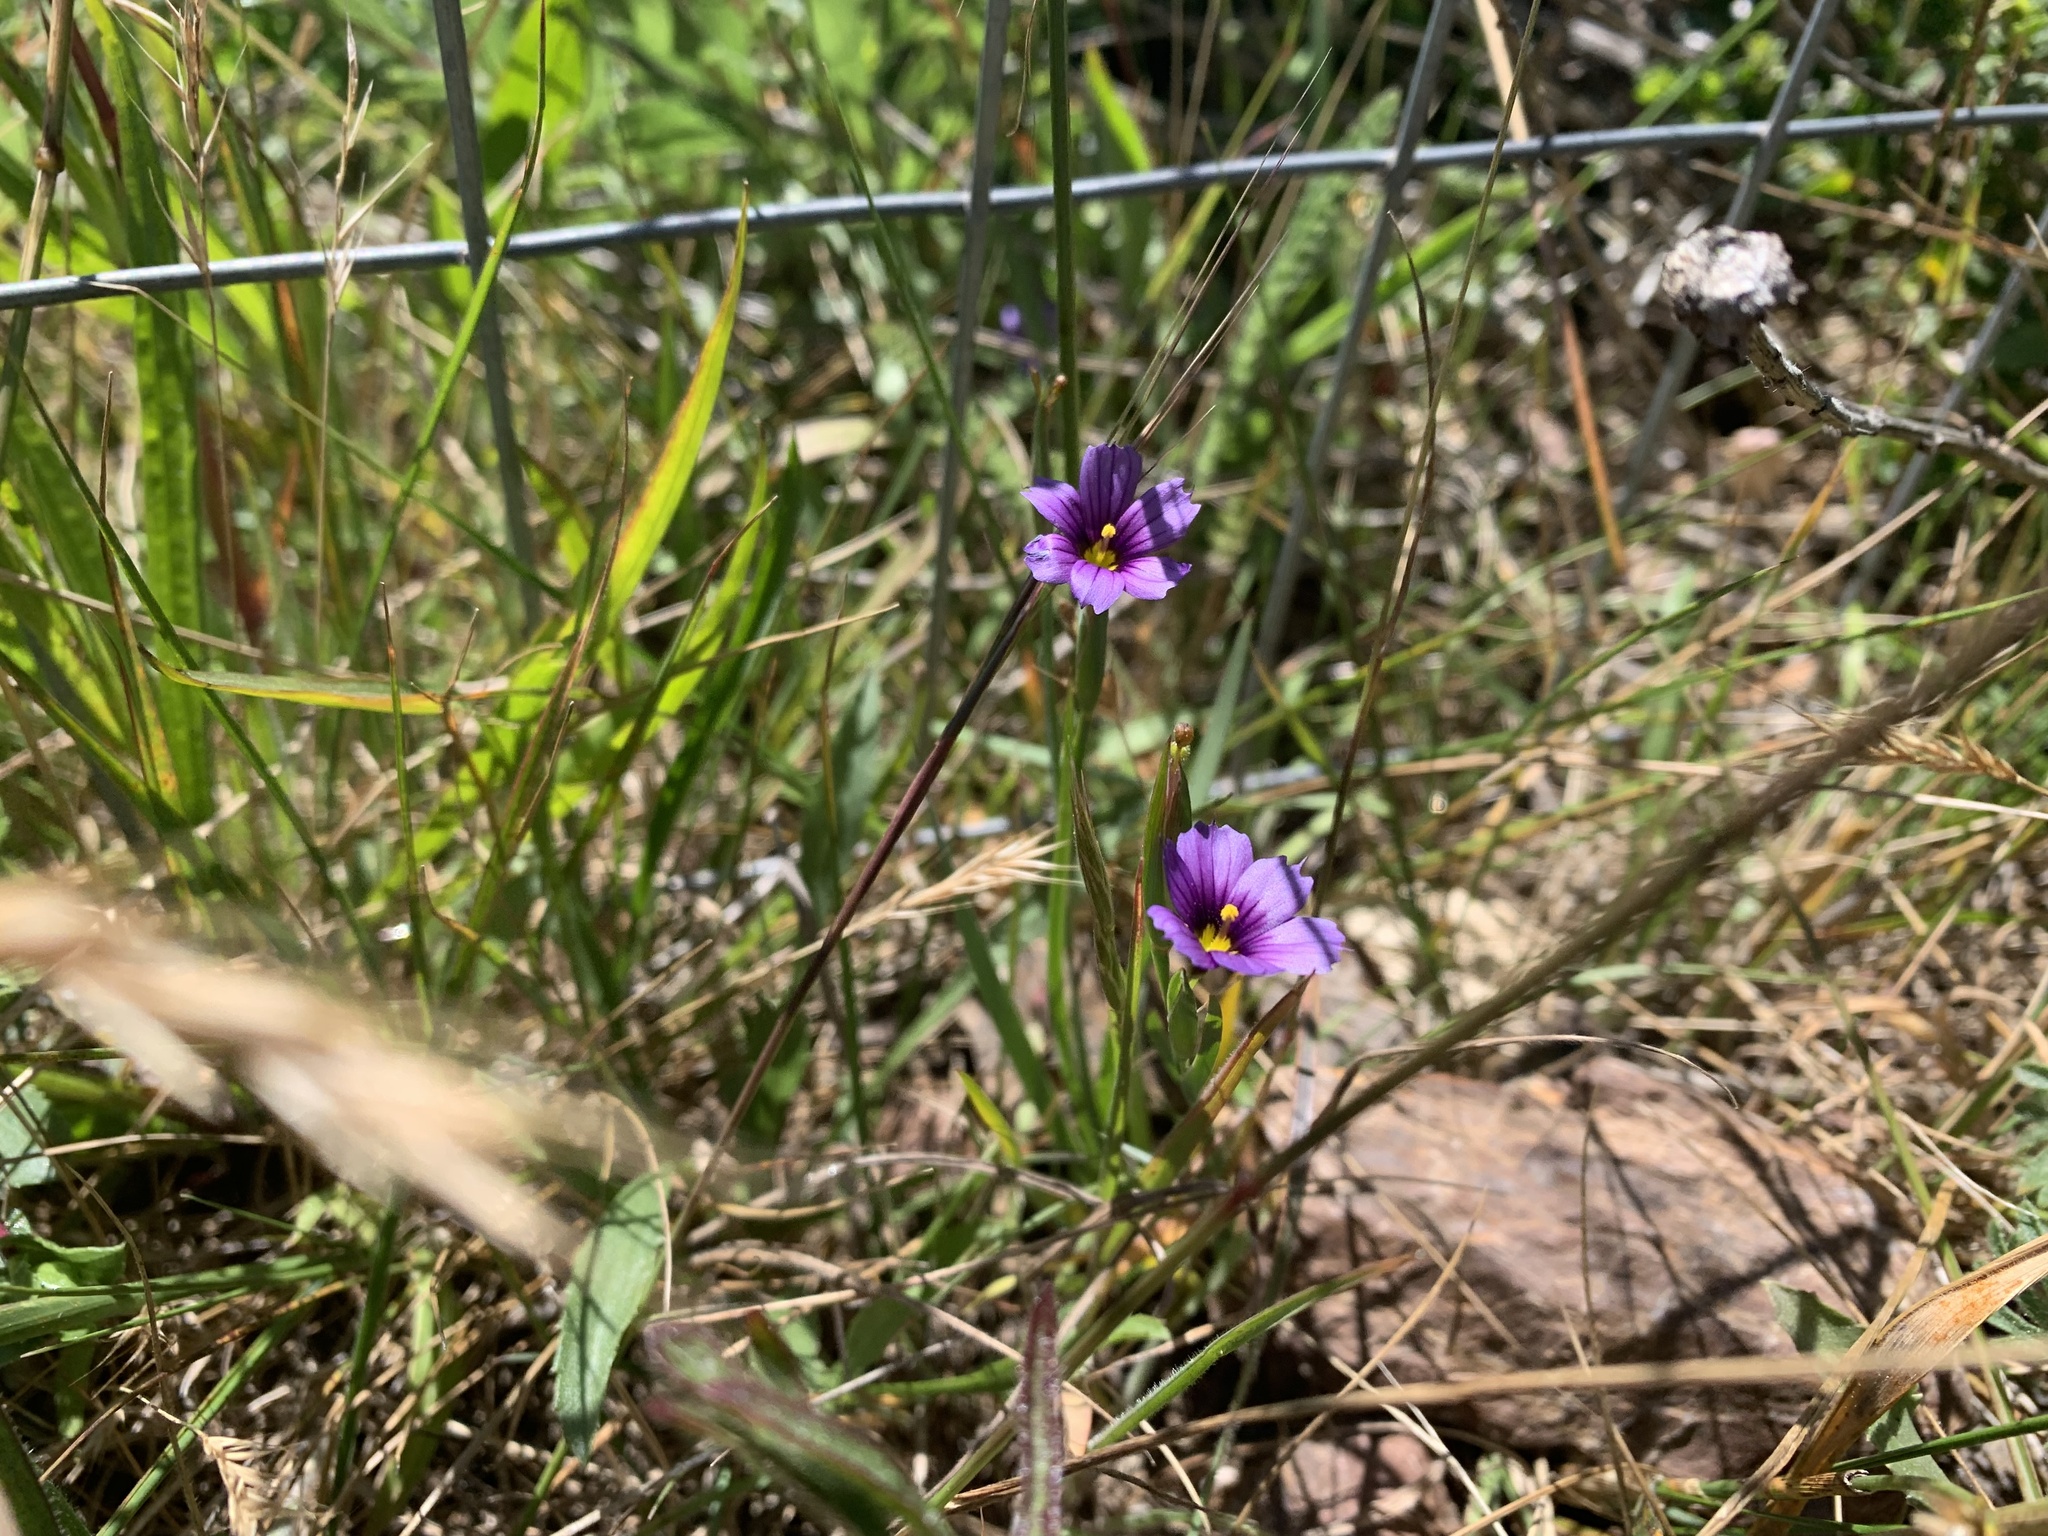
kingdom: Plantae
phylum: Tracheophyta
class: Liliopsida
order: Asparagales
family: Iridaceae
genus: Sisyrinchium
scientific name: Sisyrinchium bellum
